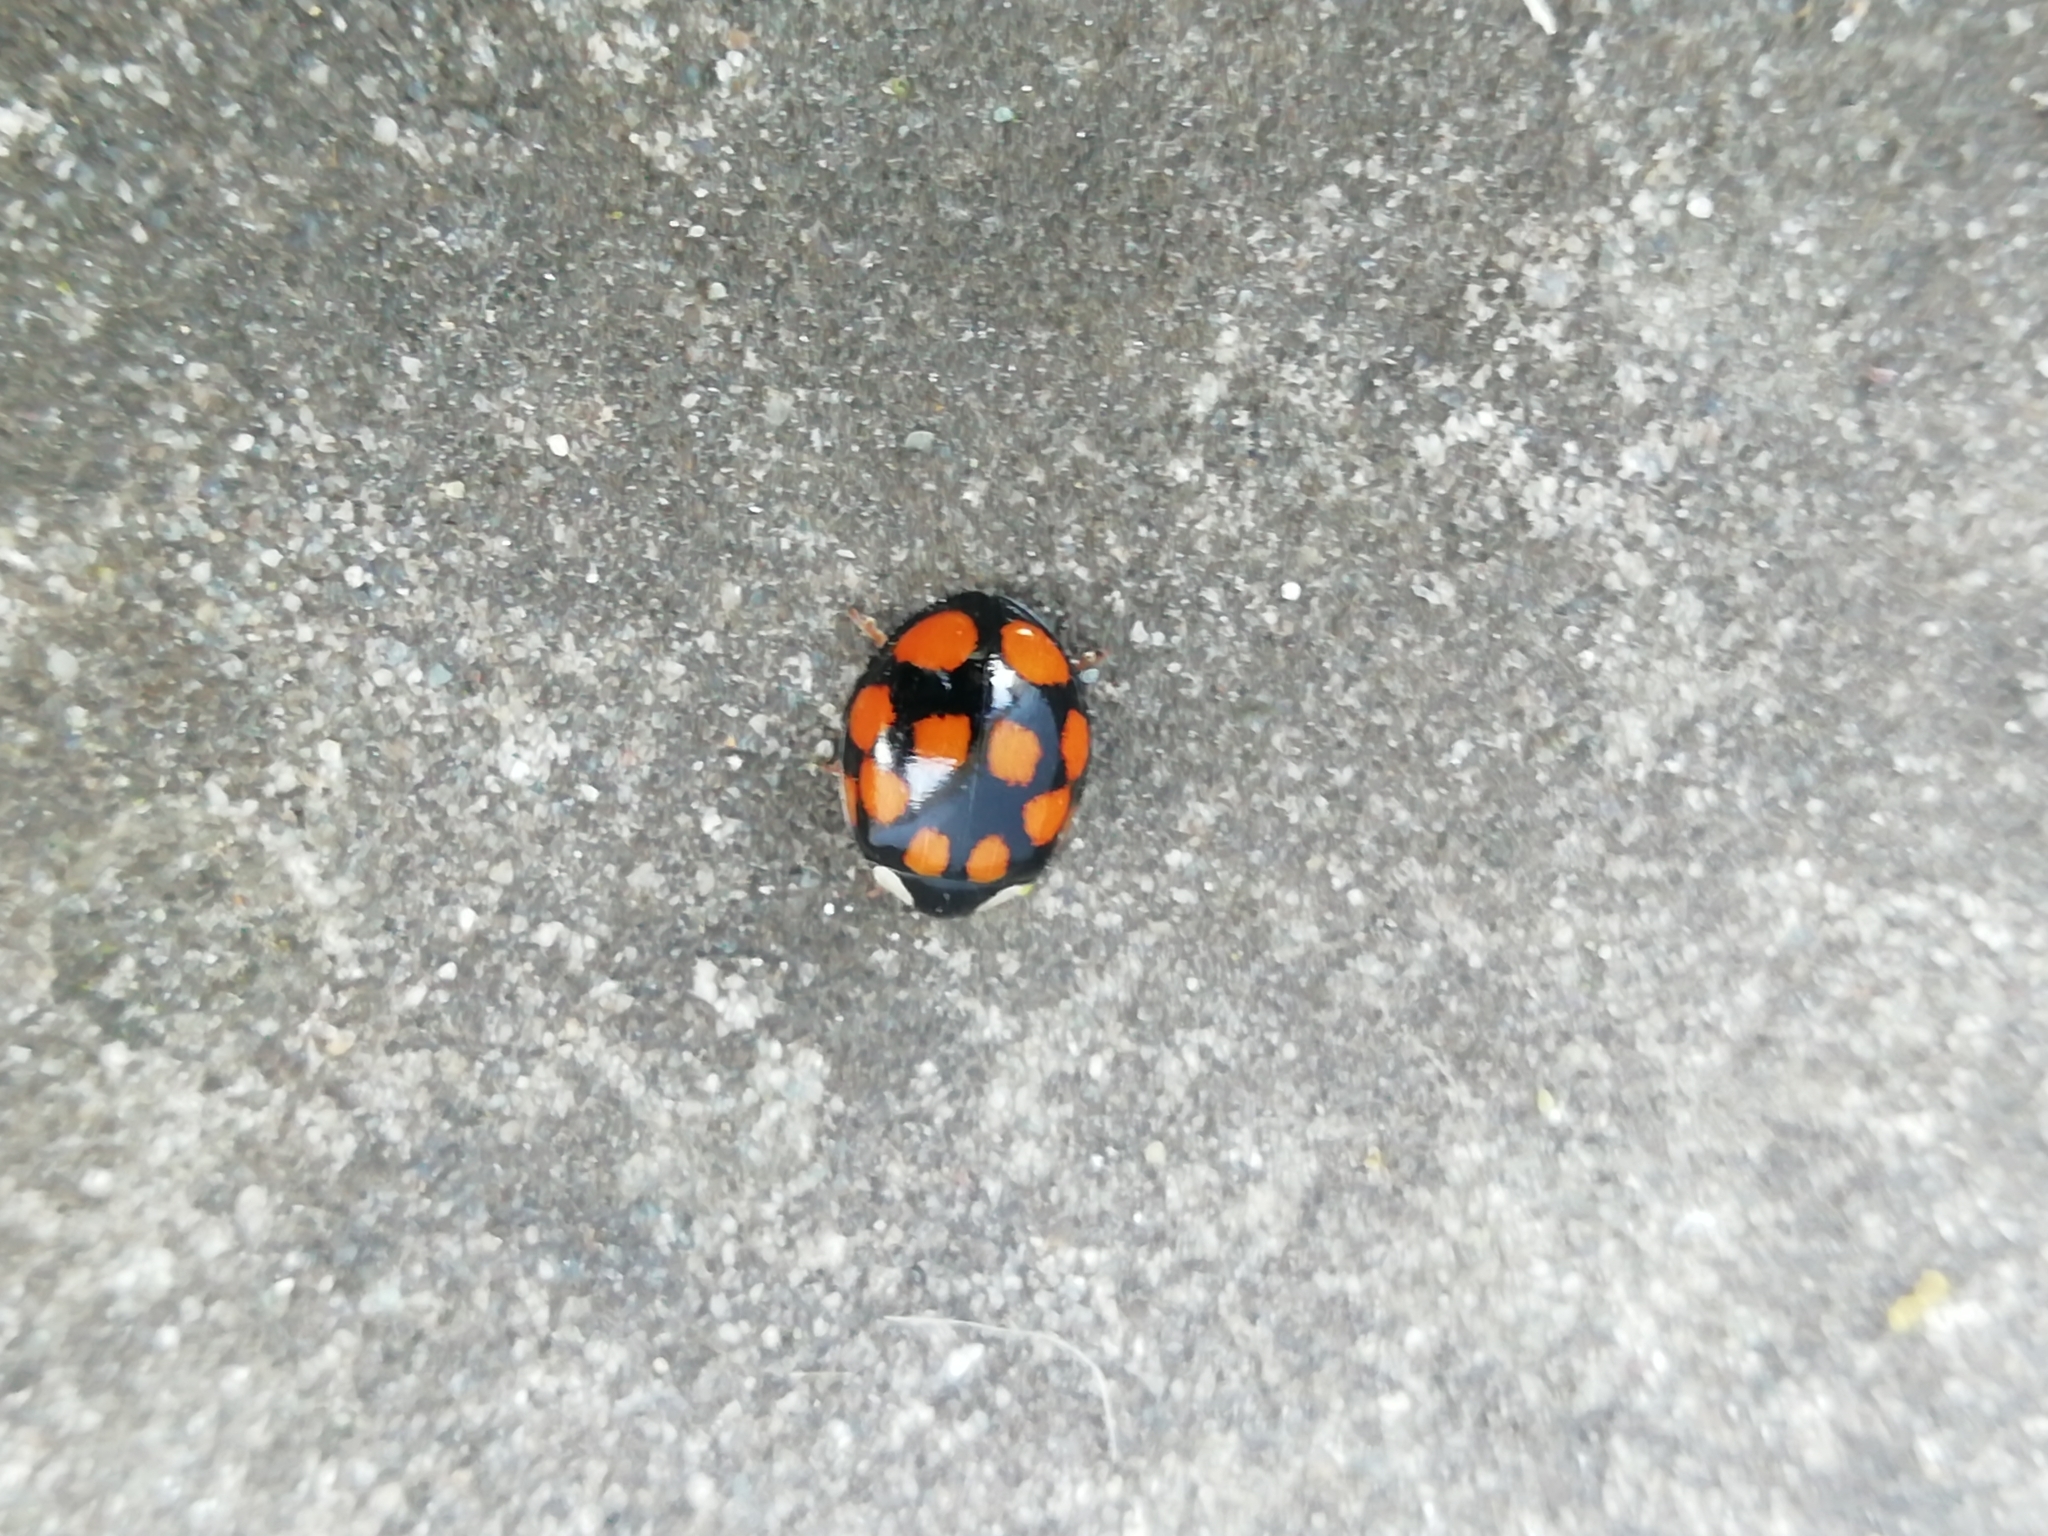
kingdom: Animalia
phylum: Arthropoda
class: Insecta
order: Coleoptera
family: Coccinellidae
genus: Harmonia
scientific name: Harmonia axyridis
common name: Harlequin ladybird
